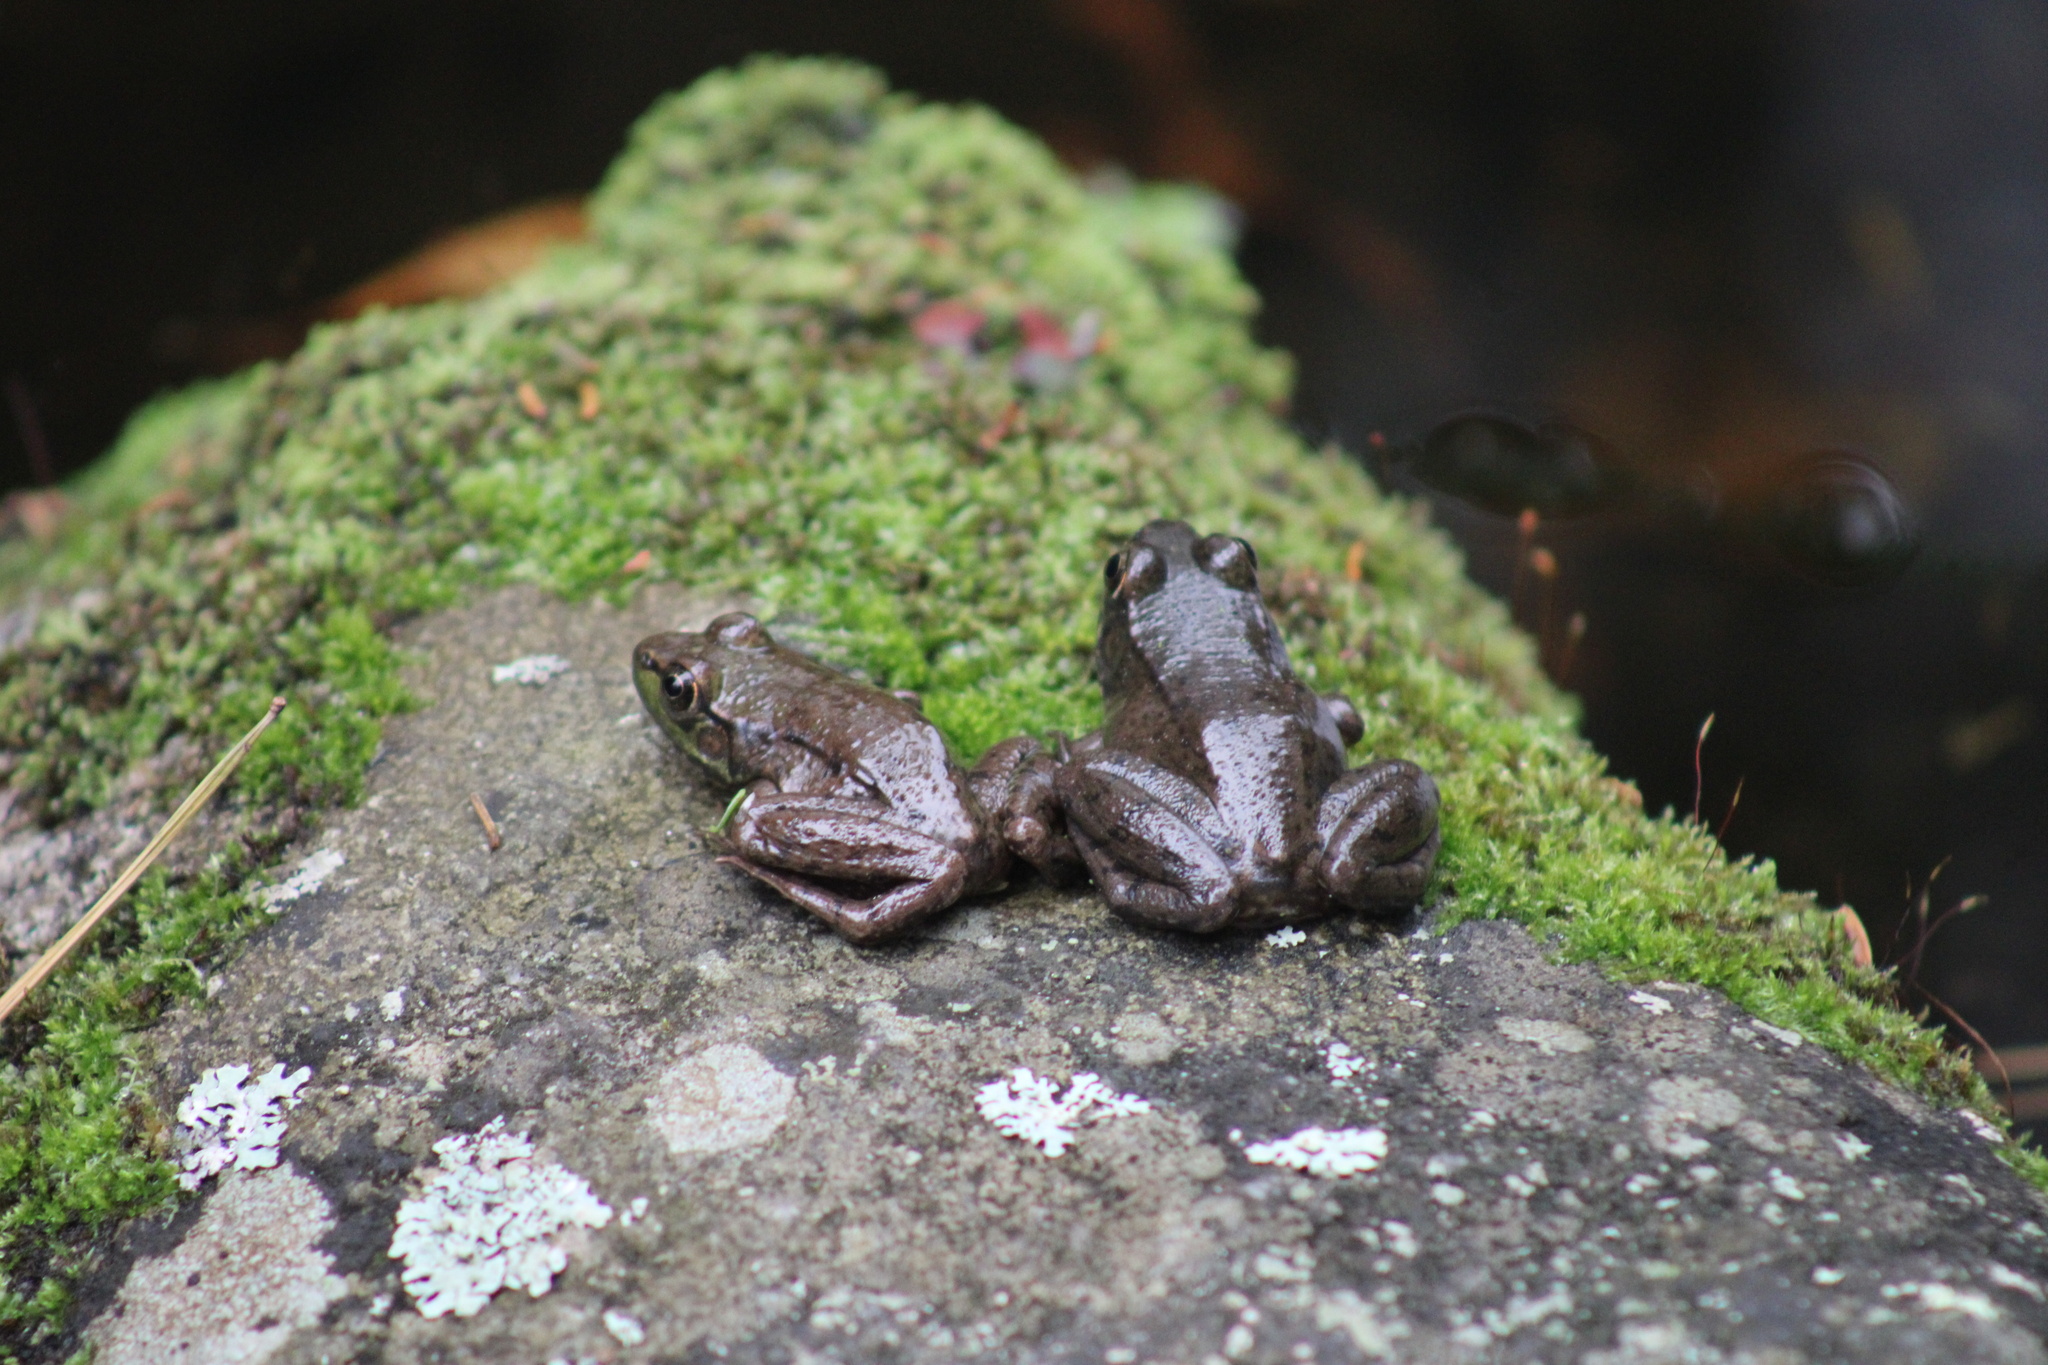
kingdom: Animalia
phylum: Chordata
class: Amphibia
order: Anura
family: Ranidae
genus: Lithobates
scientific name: Lithobates clamitans
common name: Green frog
